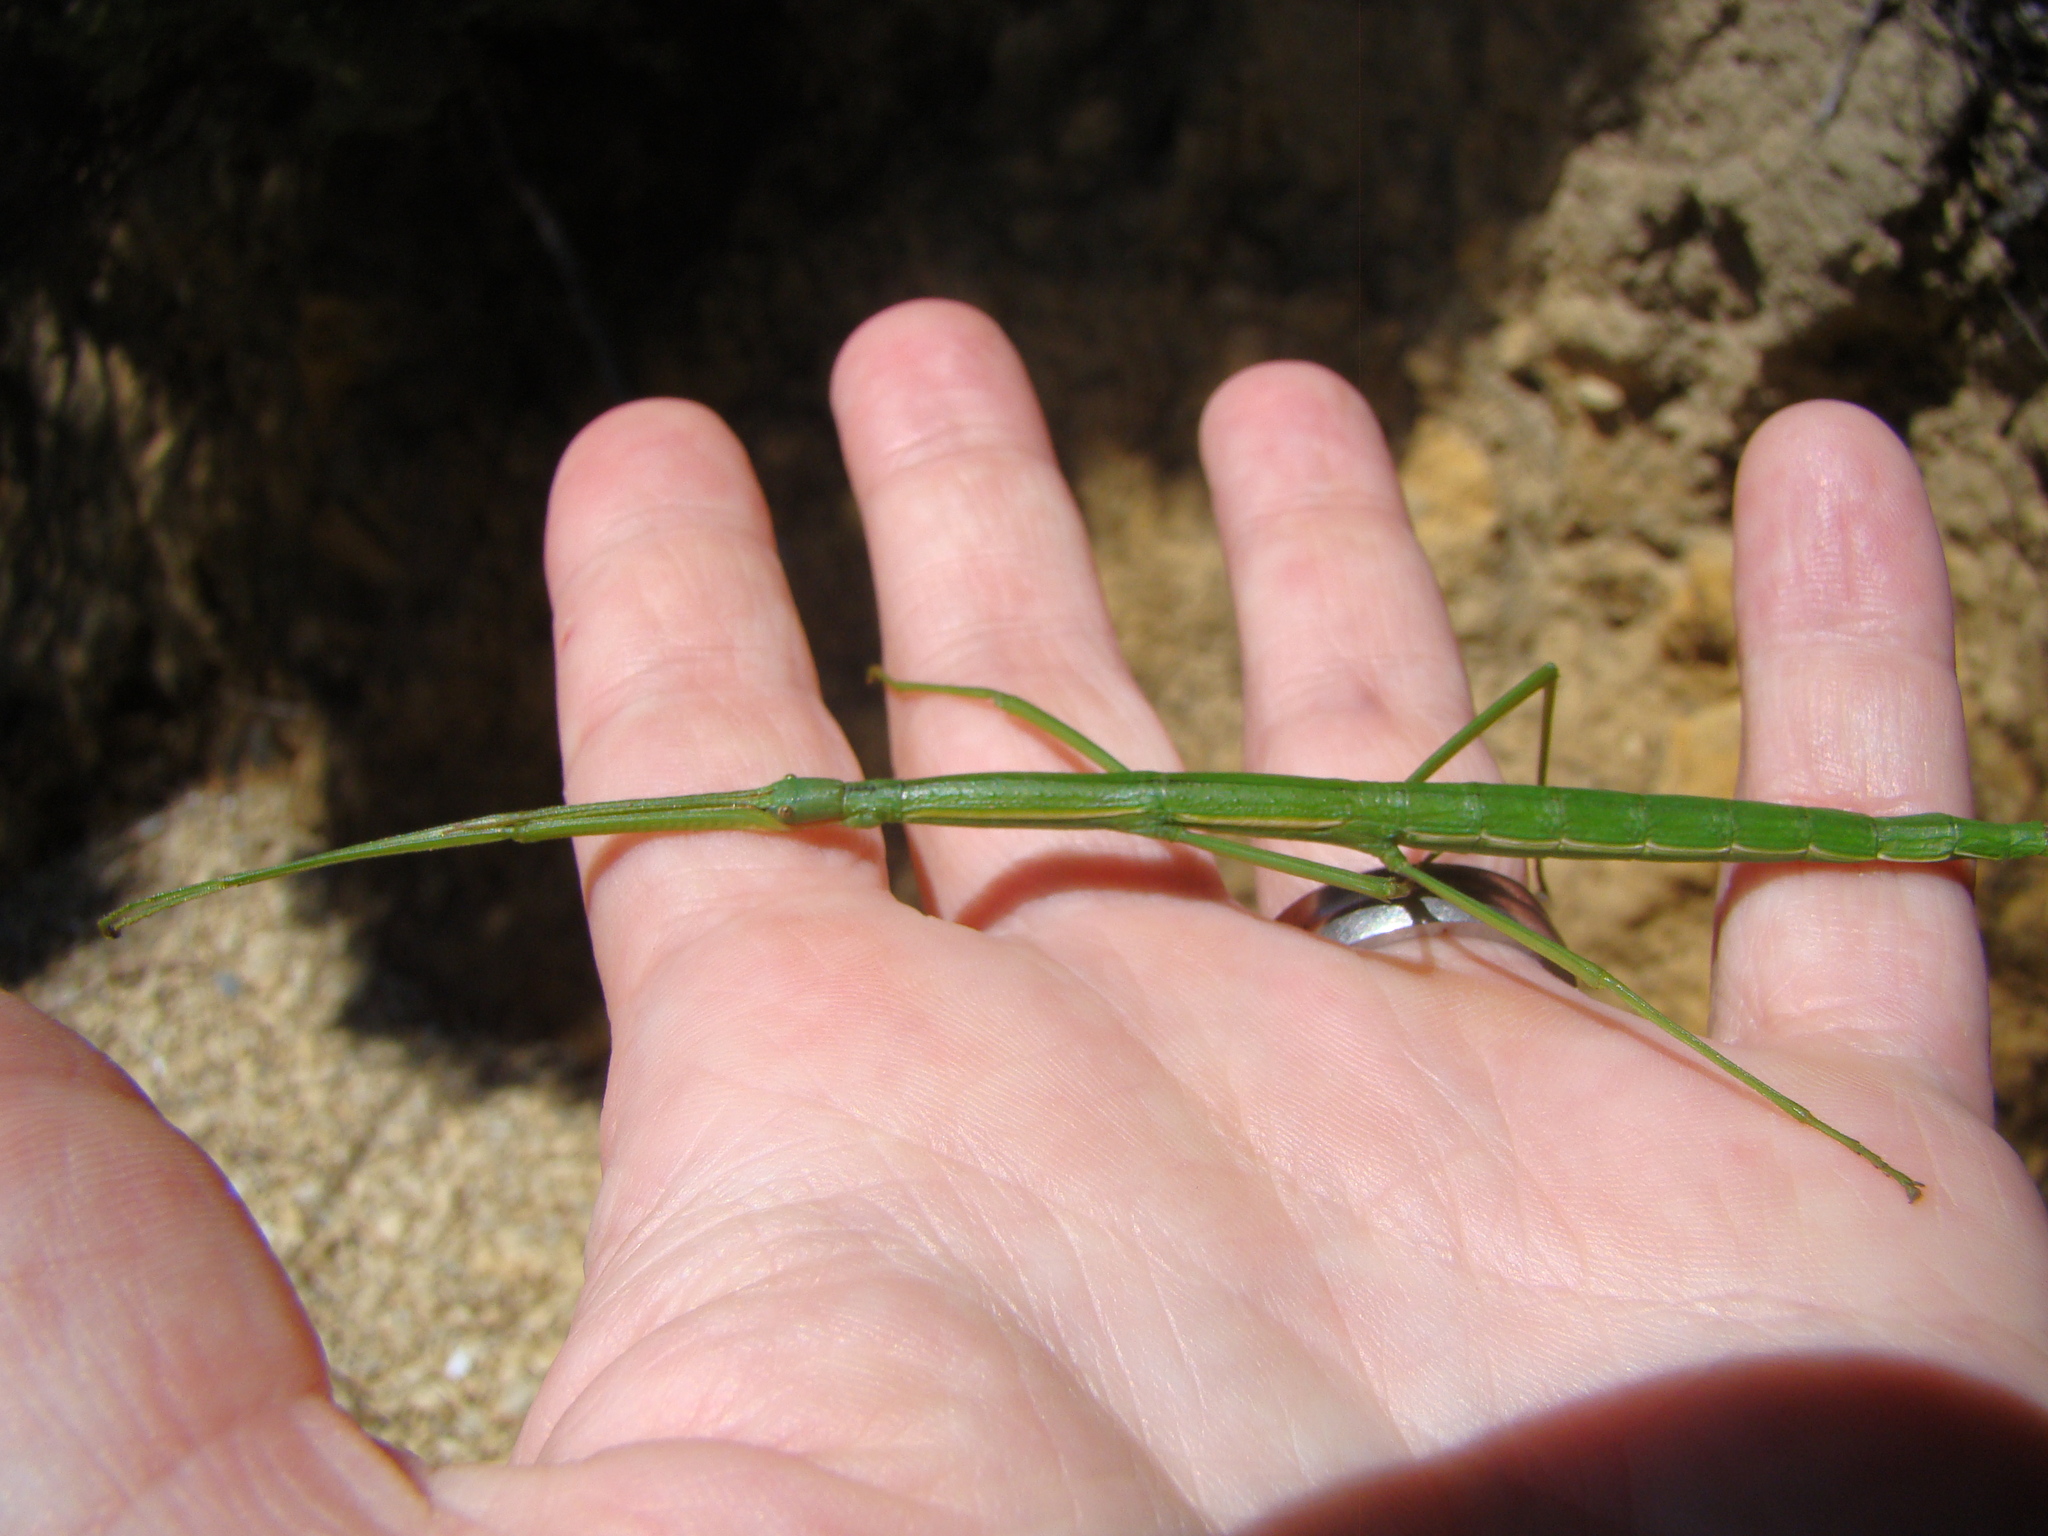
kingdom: Animalia
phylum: Arthropoda
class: Insecta
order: Phasmida
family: Phasmatidae
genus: Clitarchus
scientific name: Clitarchus hookeri
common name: Smooth stick insect
